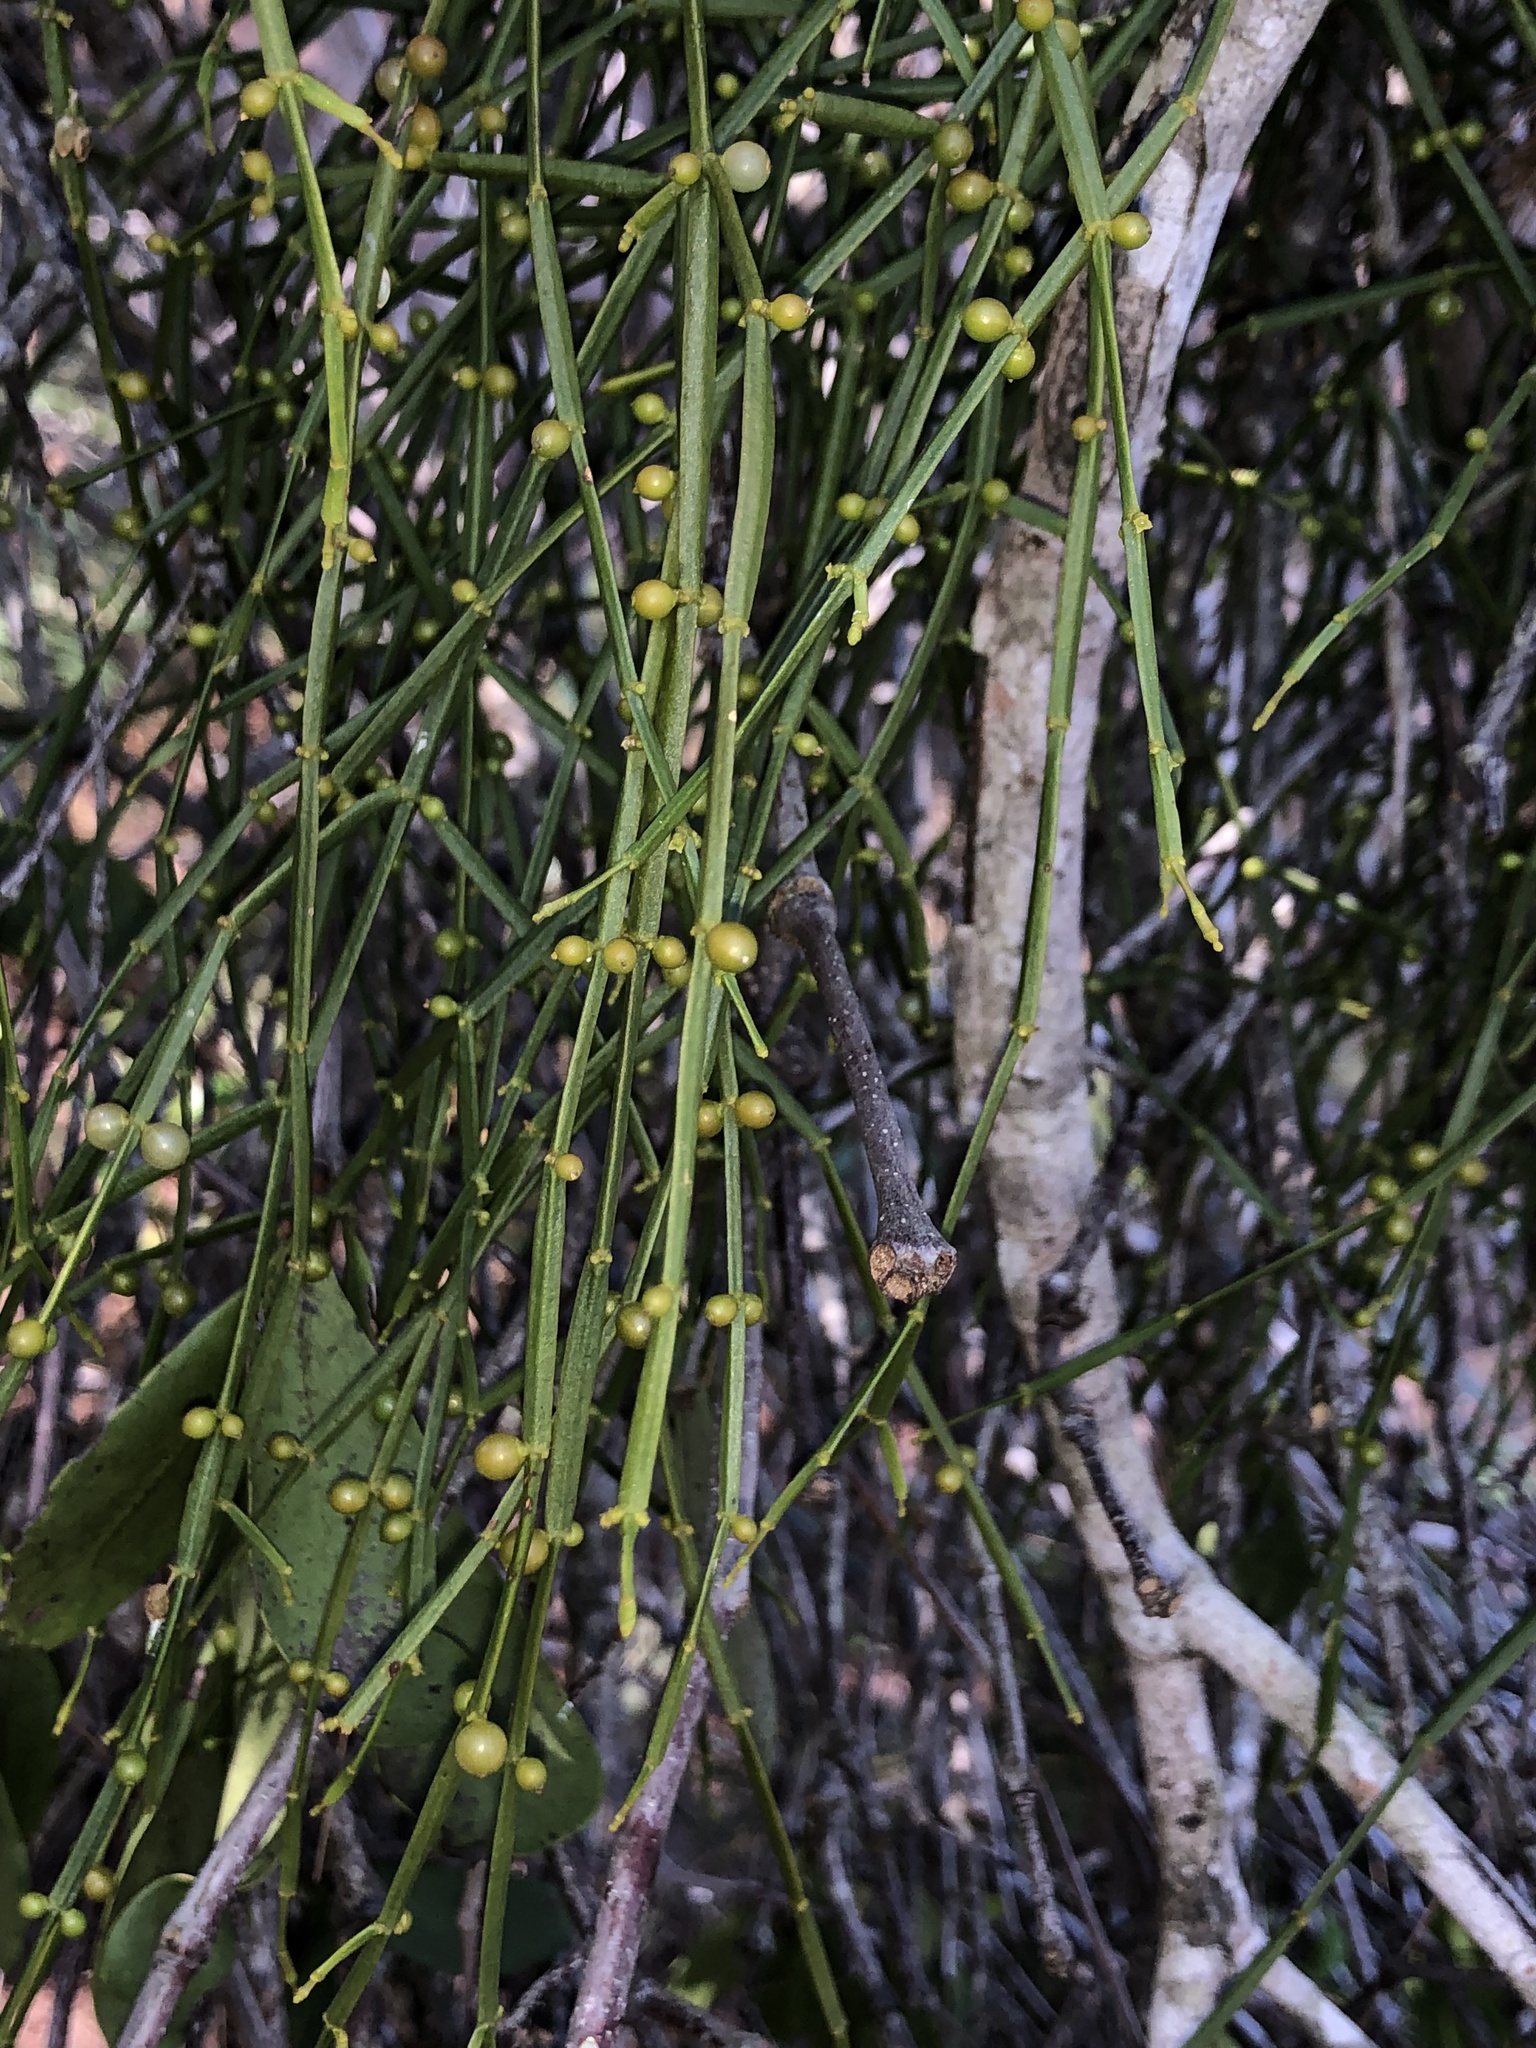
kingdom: Plantae
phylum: Tracheophyta
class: Magnoliopsida
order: Santalales
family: Viscaceae
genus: Viscum
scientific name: Viscum articulatum
